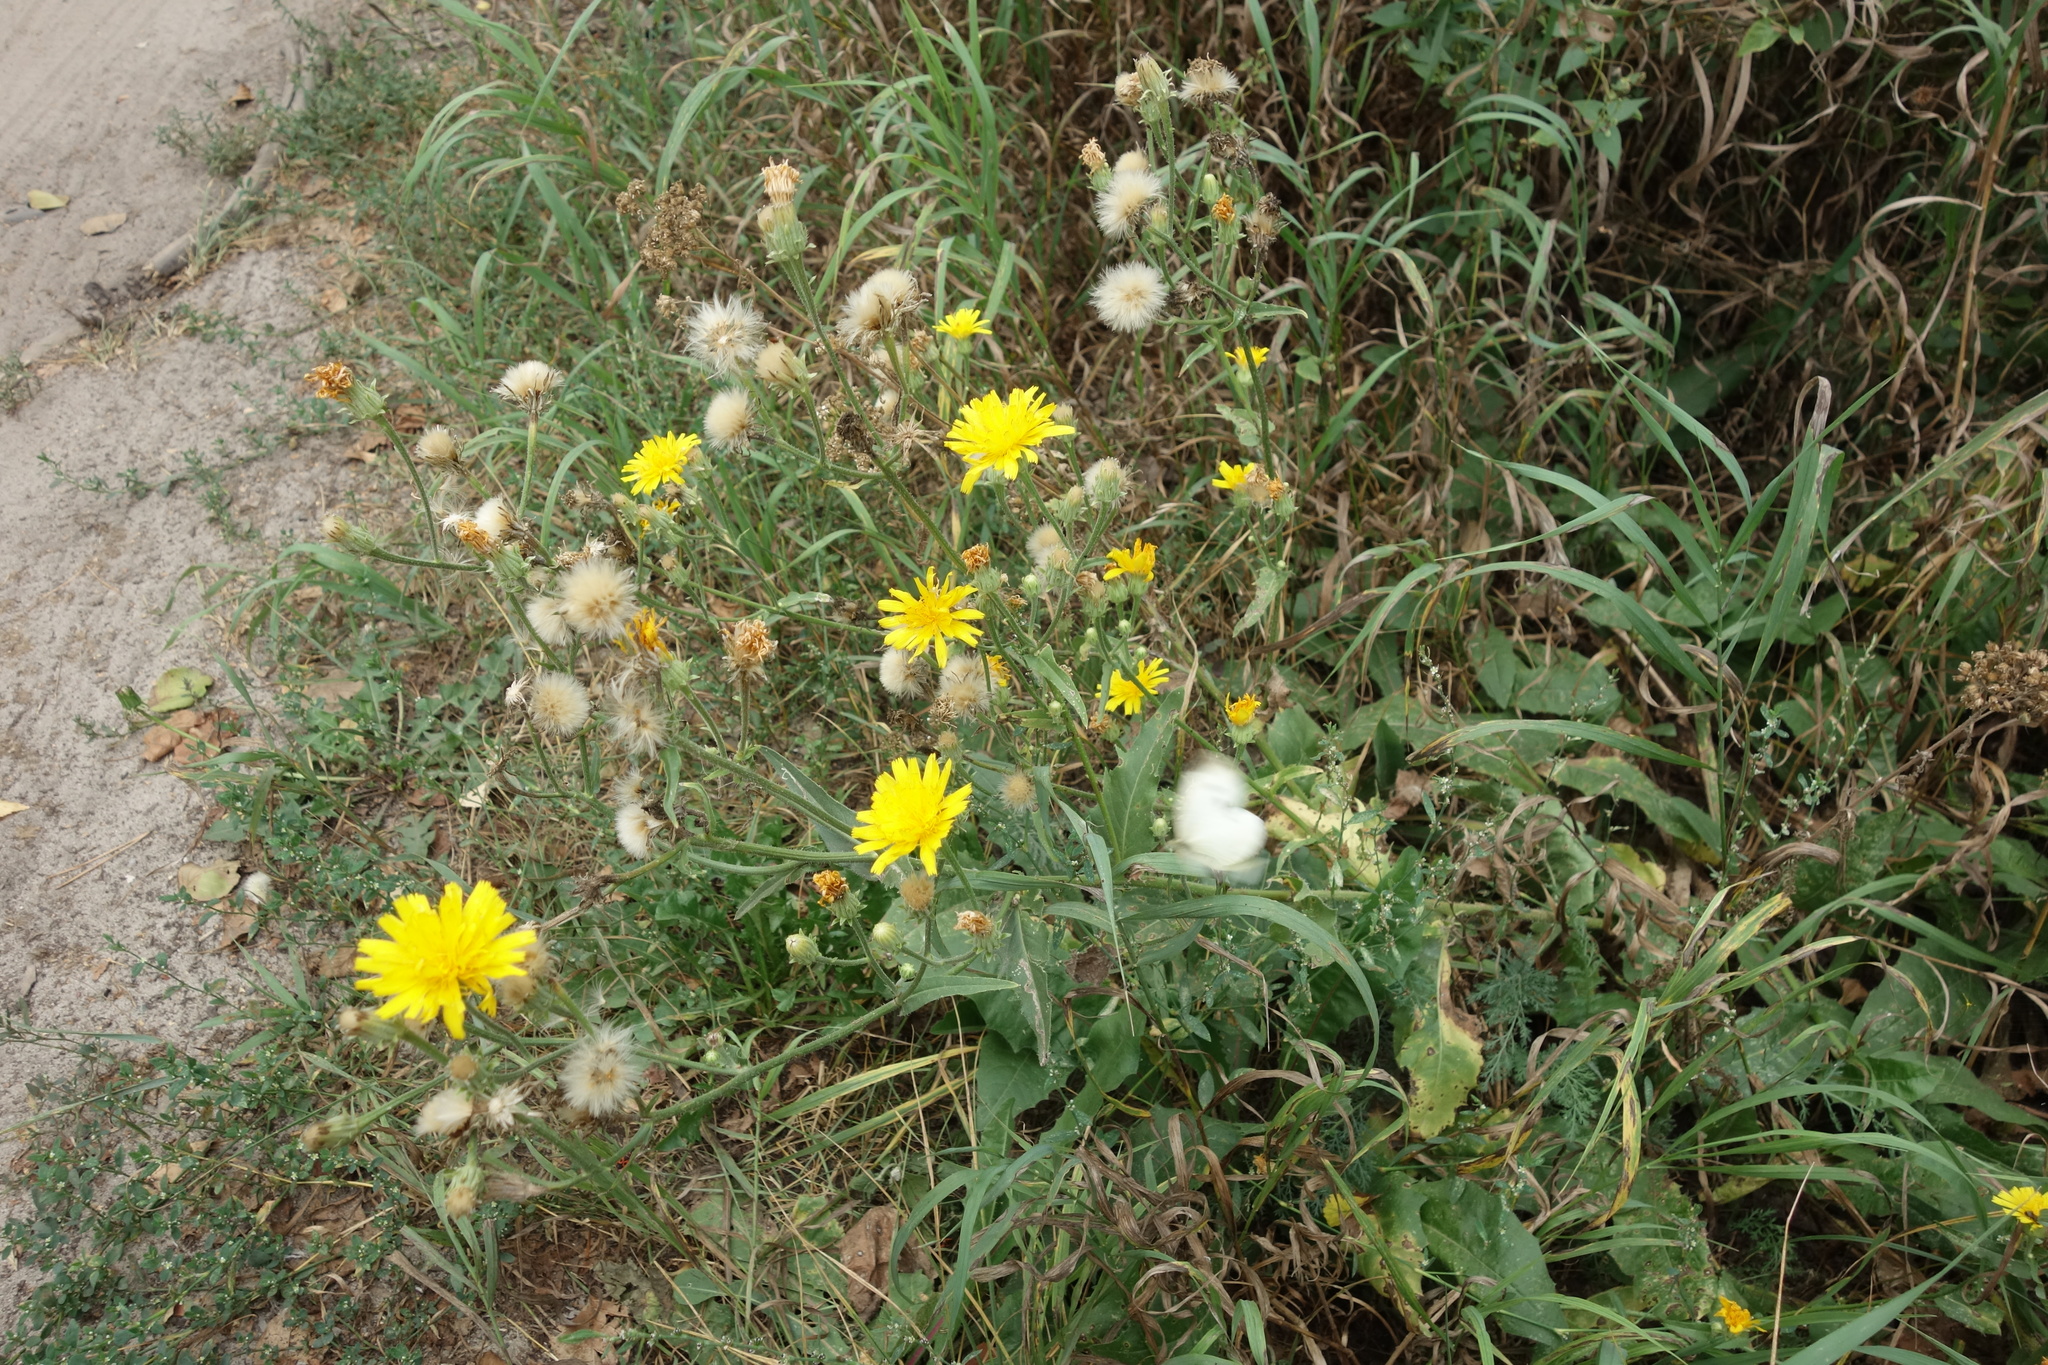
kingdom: Plantae
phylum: Tracheophyta
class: Magnoliopsida
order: Asterales
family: Asteraceae
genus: Picris
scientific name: Picris hieracioides
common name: Hawkweed oxtongue
